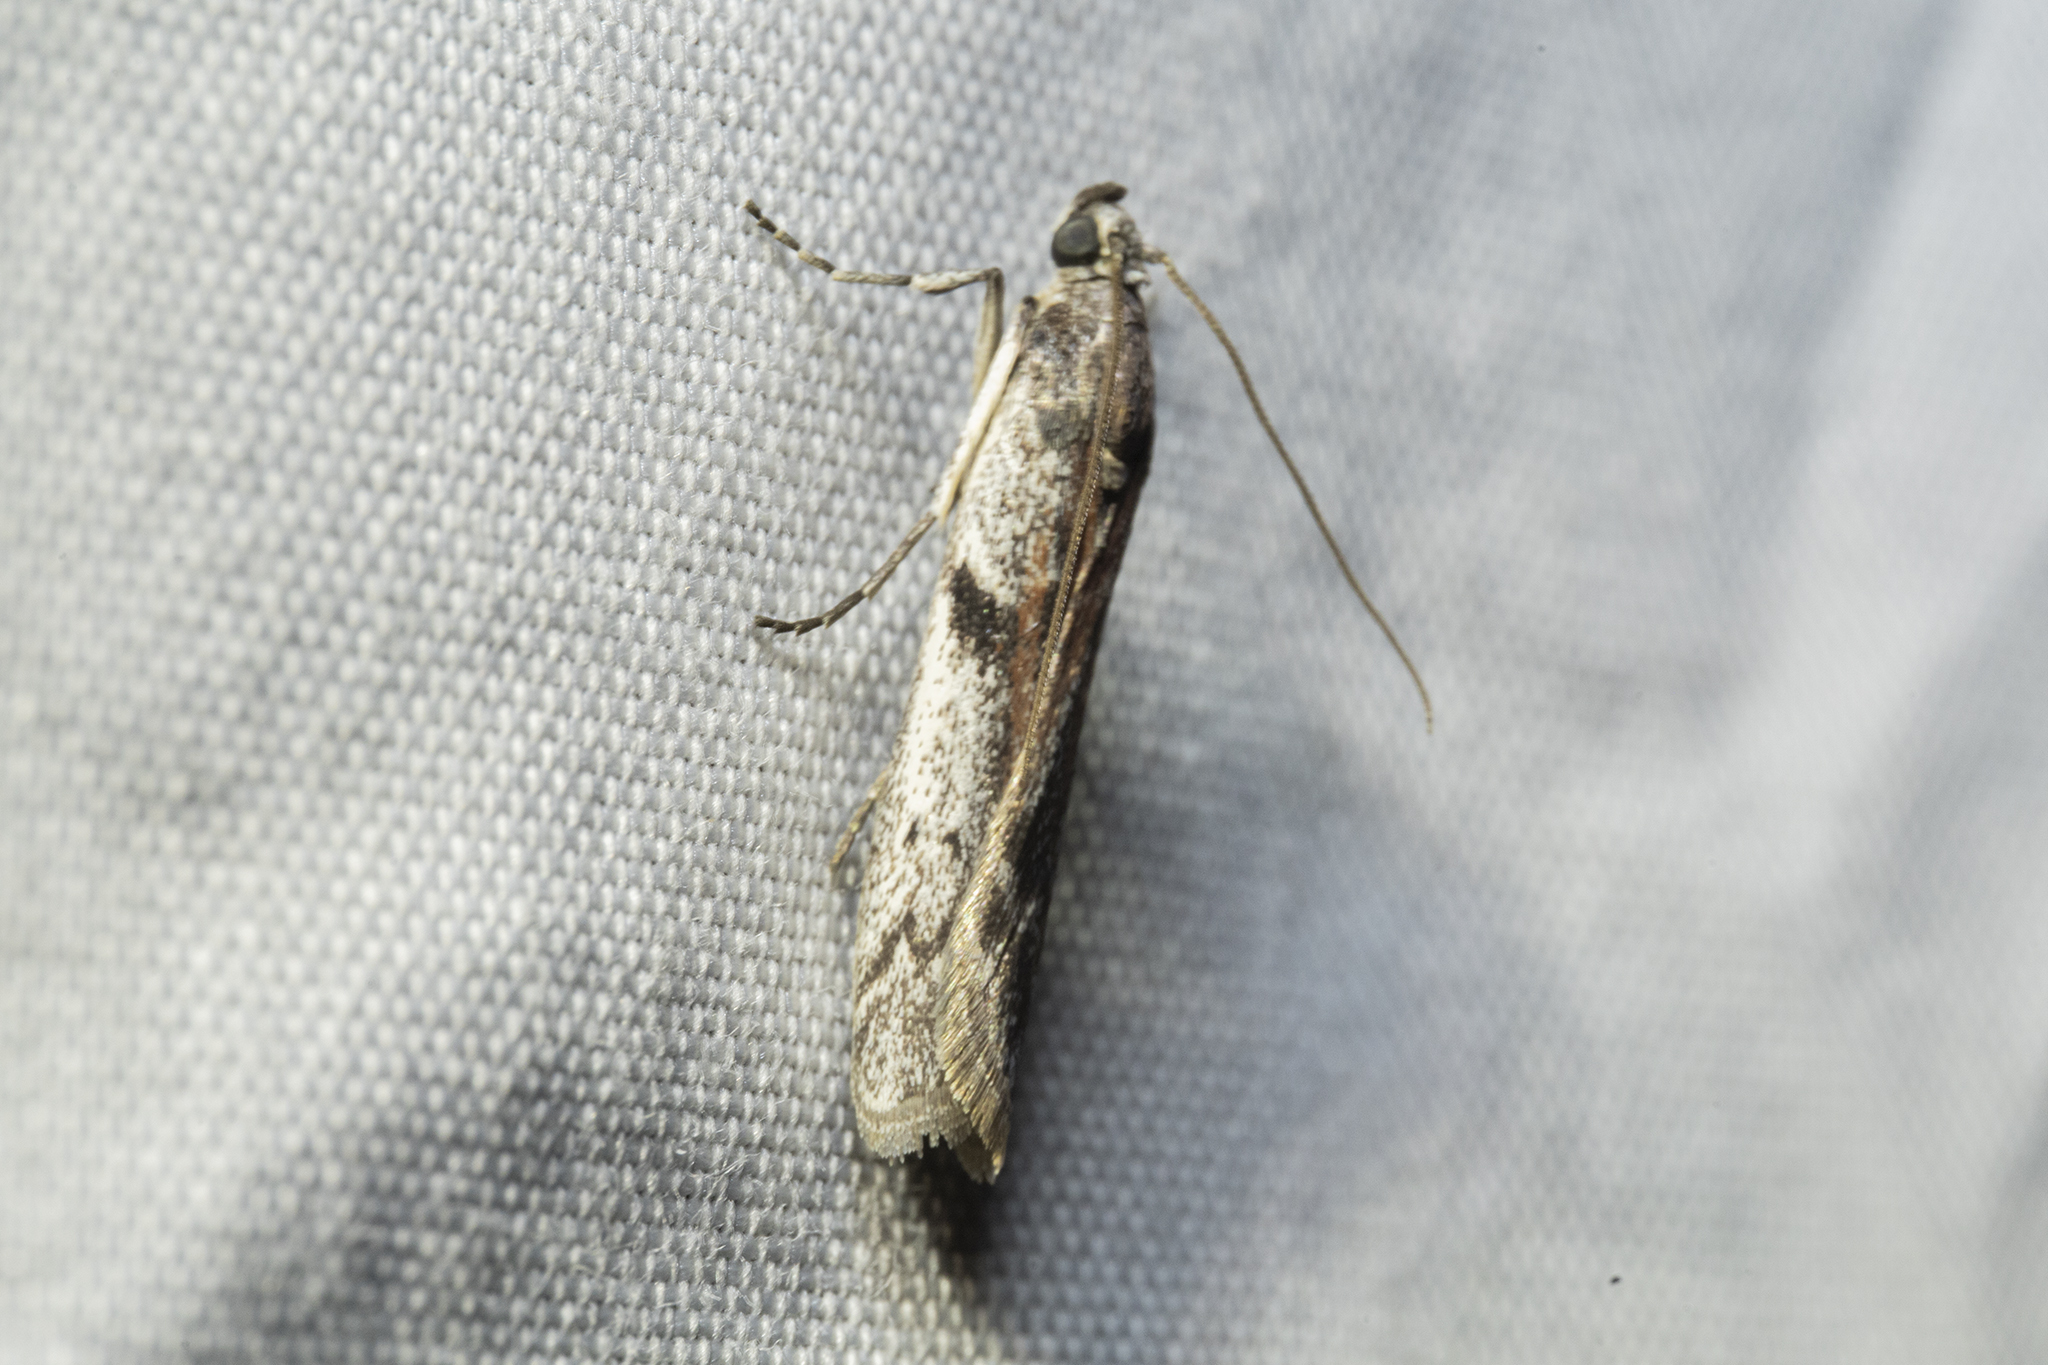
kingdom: Animalia
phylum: Arthropoda
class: Insecta
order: Lepidoptera
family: Pyralidae
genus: Patagoniodes
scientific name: Patagoniodes farinaria
